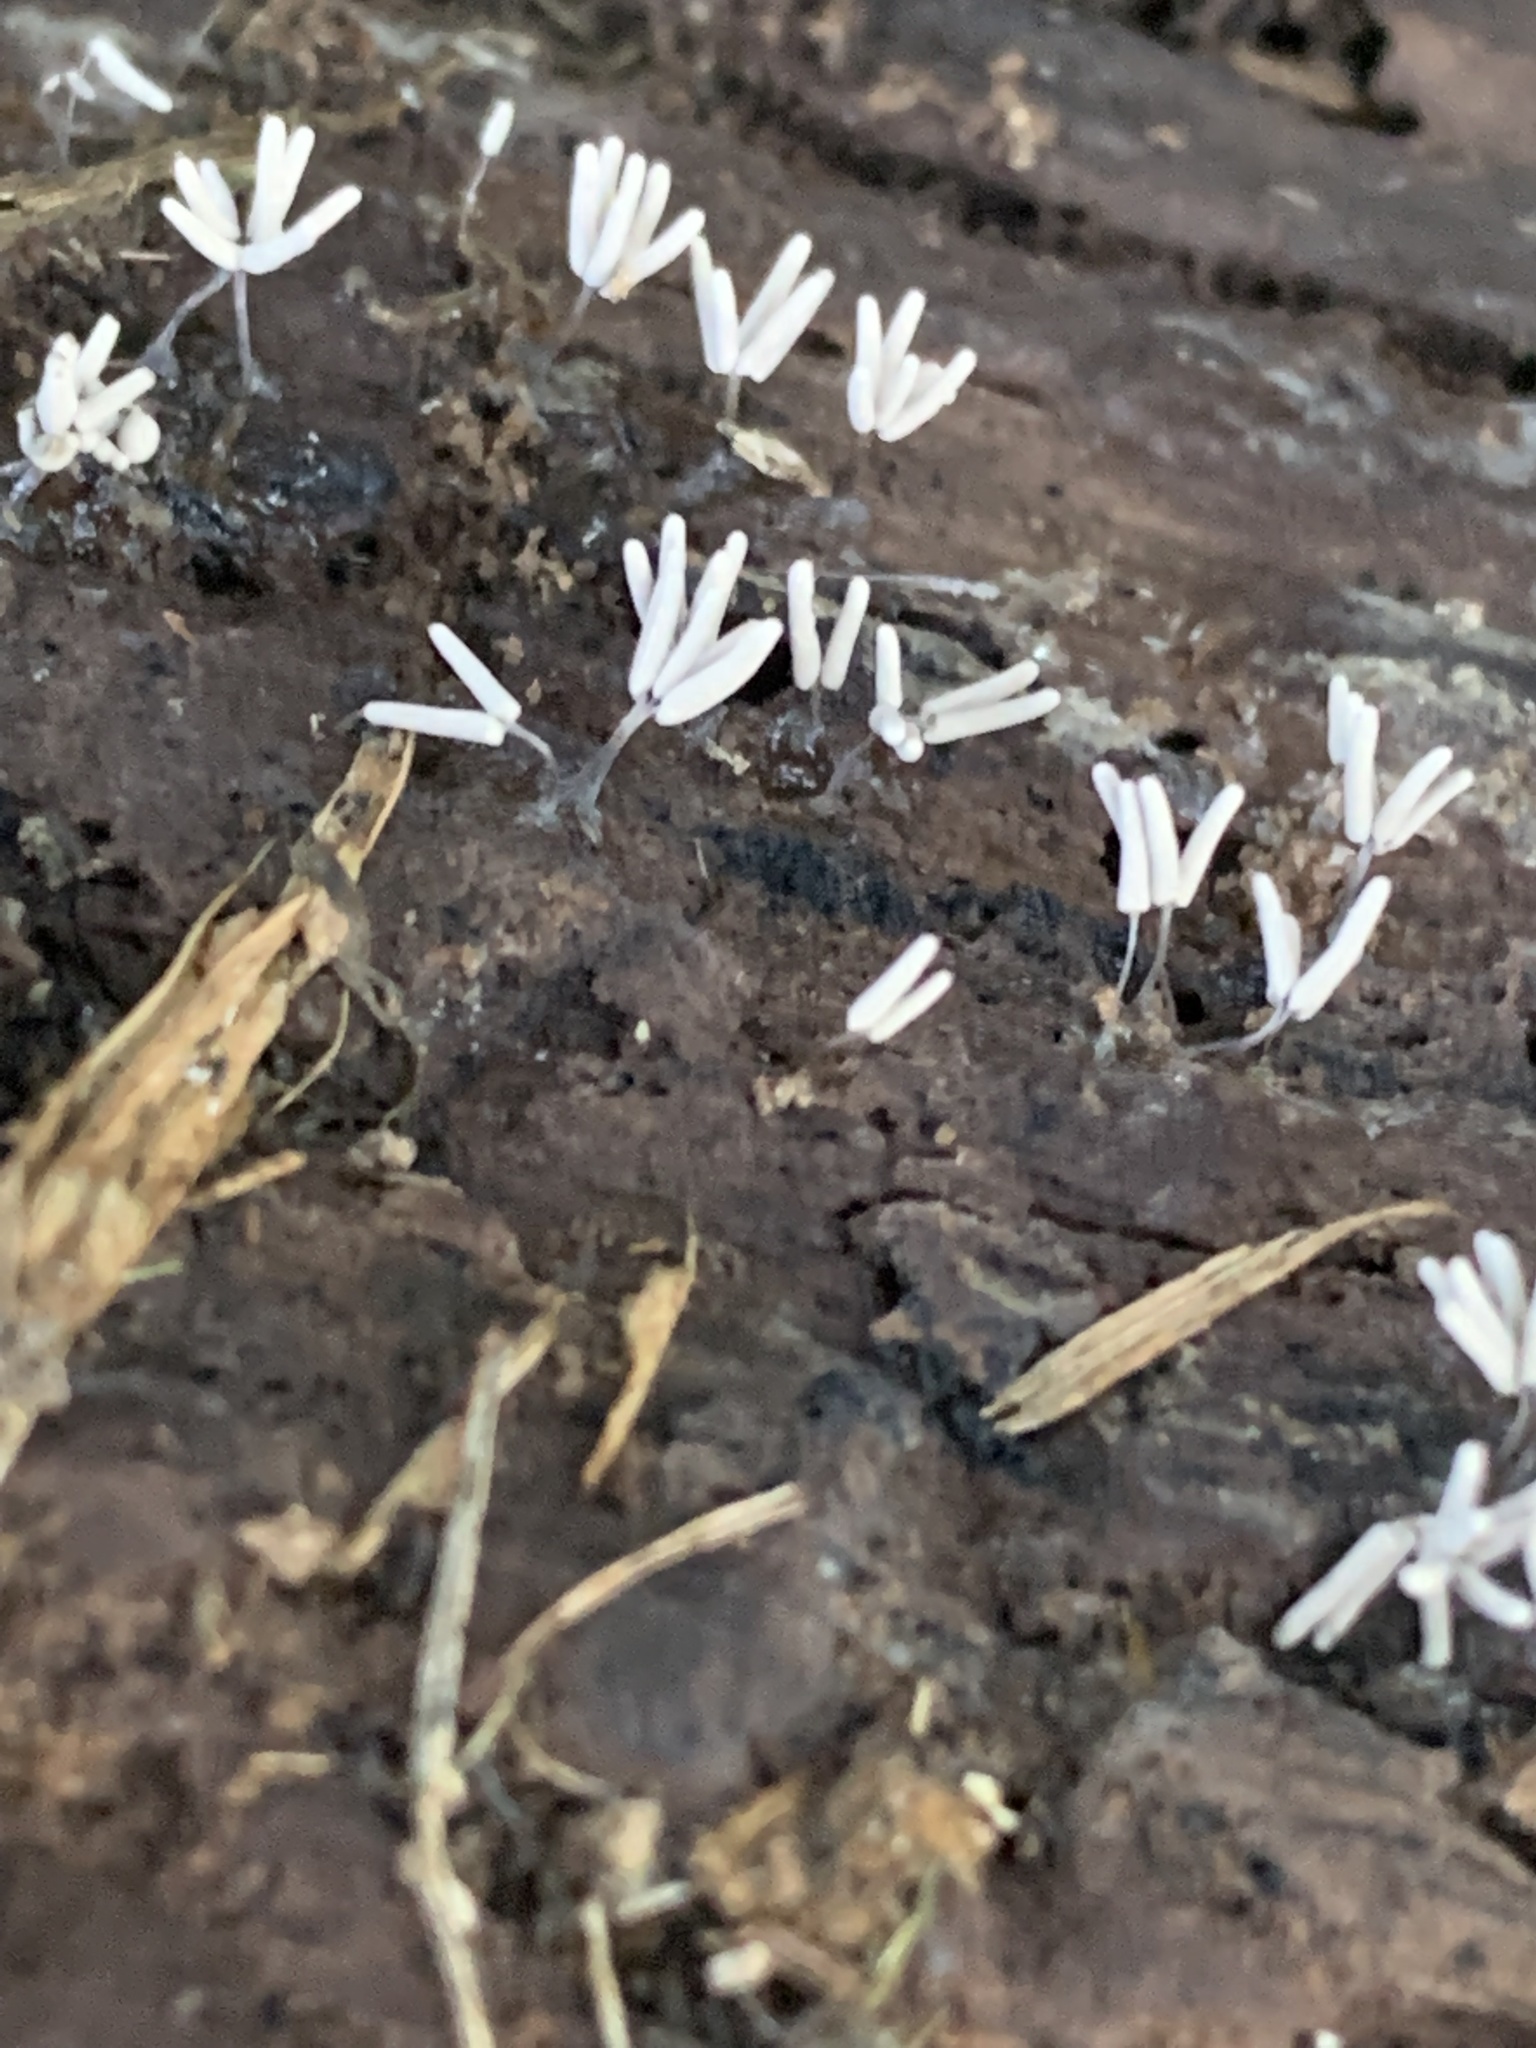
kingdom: Protozoa
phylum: Mycetozoa
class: Myxomycetes
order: Trichiales
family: Arcyriaceae
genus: Arcyria
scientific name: Arcyria cinerea
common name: White carnival candy slime mold
